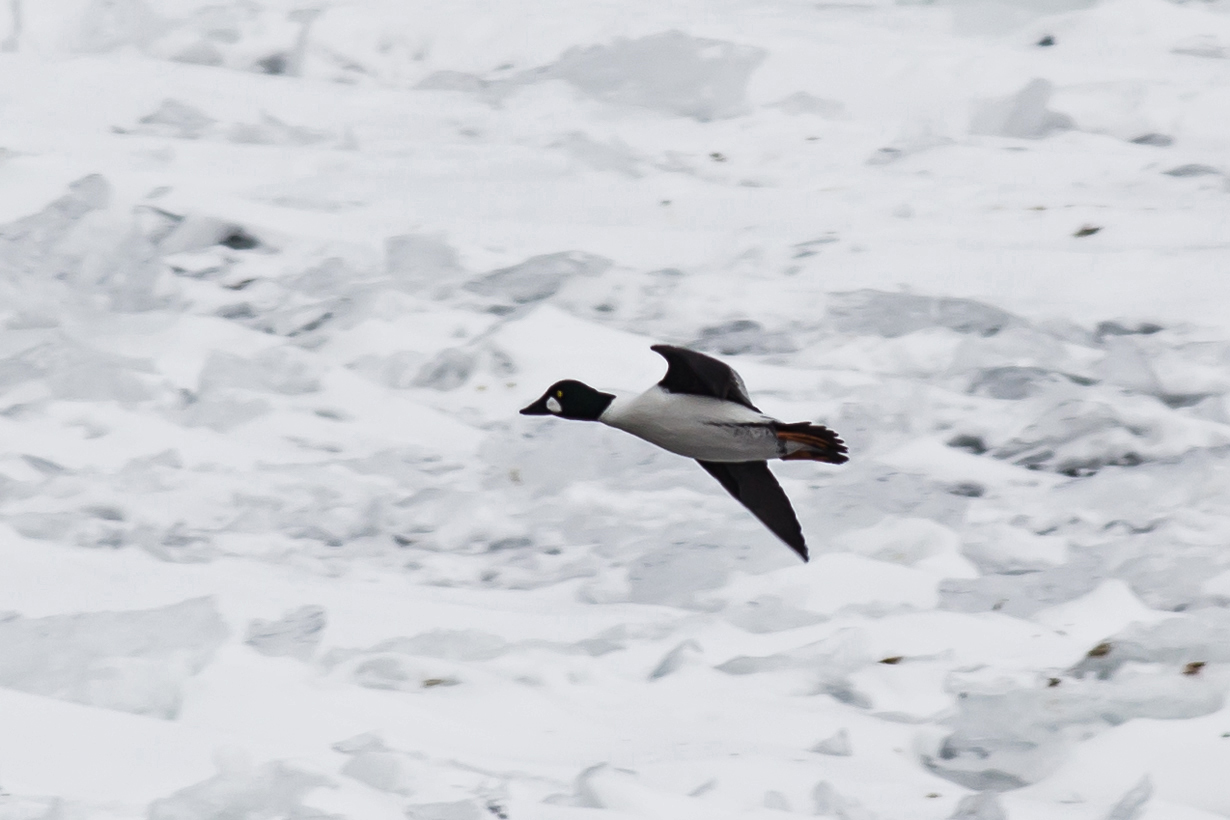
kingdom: Animalia
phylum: Chordata
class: Aves
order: Anseriformes
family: Anatidae
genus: Bucephala
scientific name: Bucephala clangula
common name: Common goldeneye
